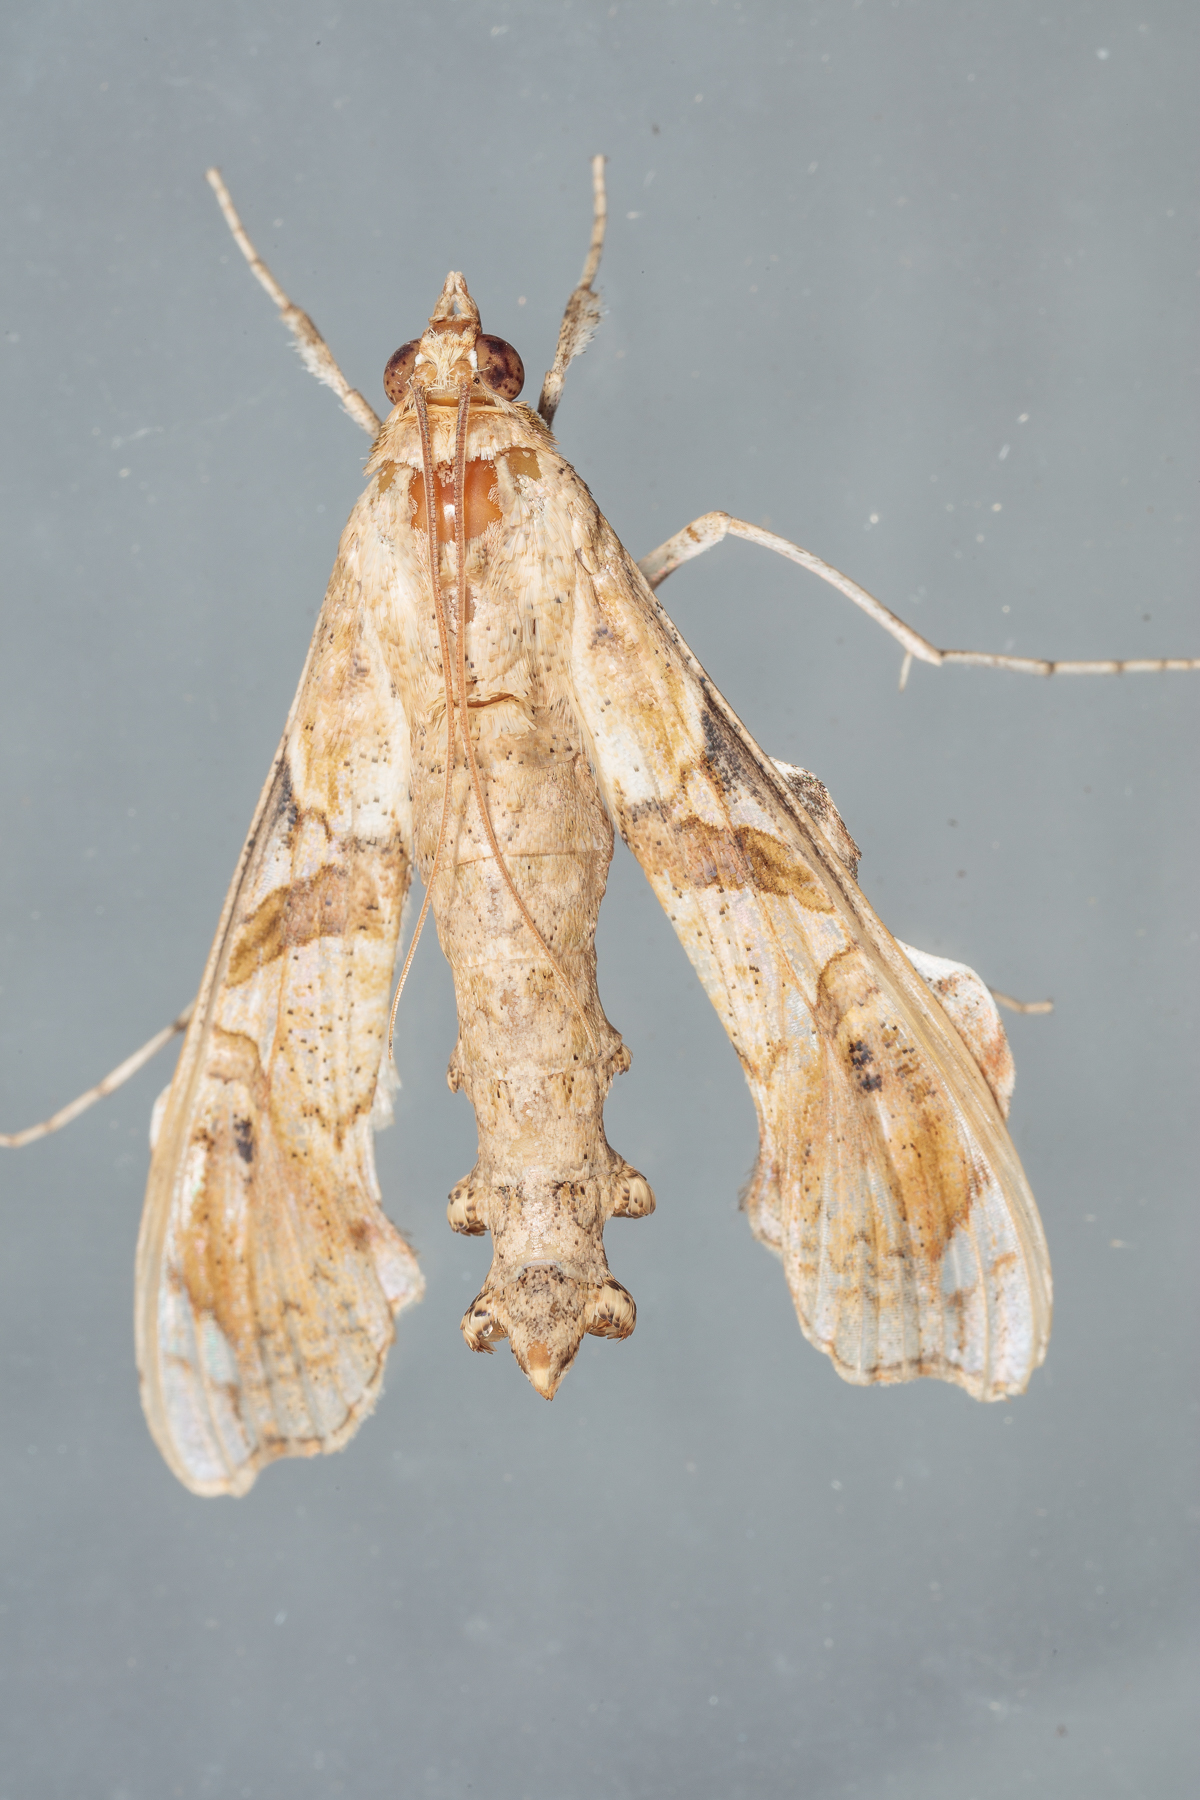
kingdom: Animalia
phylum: Arthropoda
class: Insecta
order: Lepidoptera
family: Crambidae
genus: Terastia
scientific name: Terastia meticulosalis
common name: Moth
